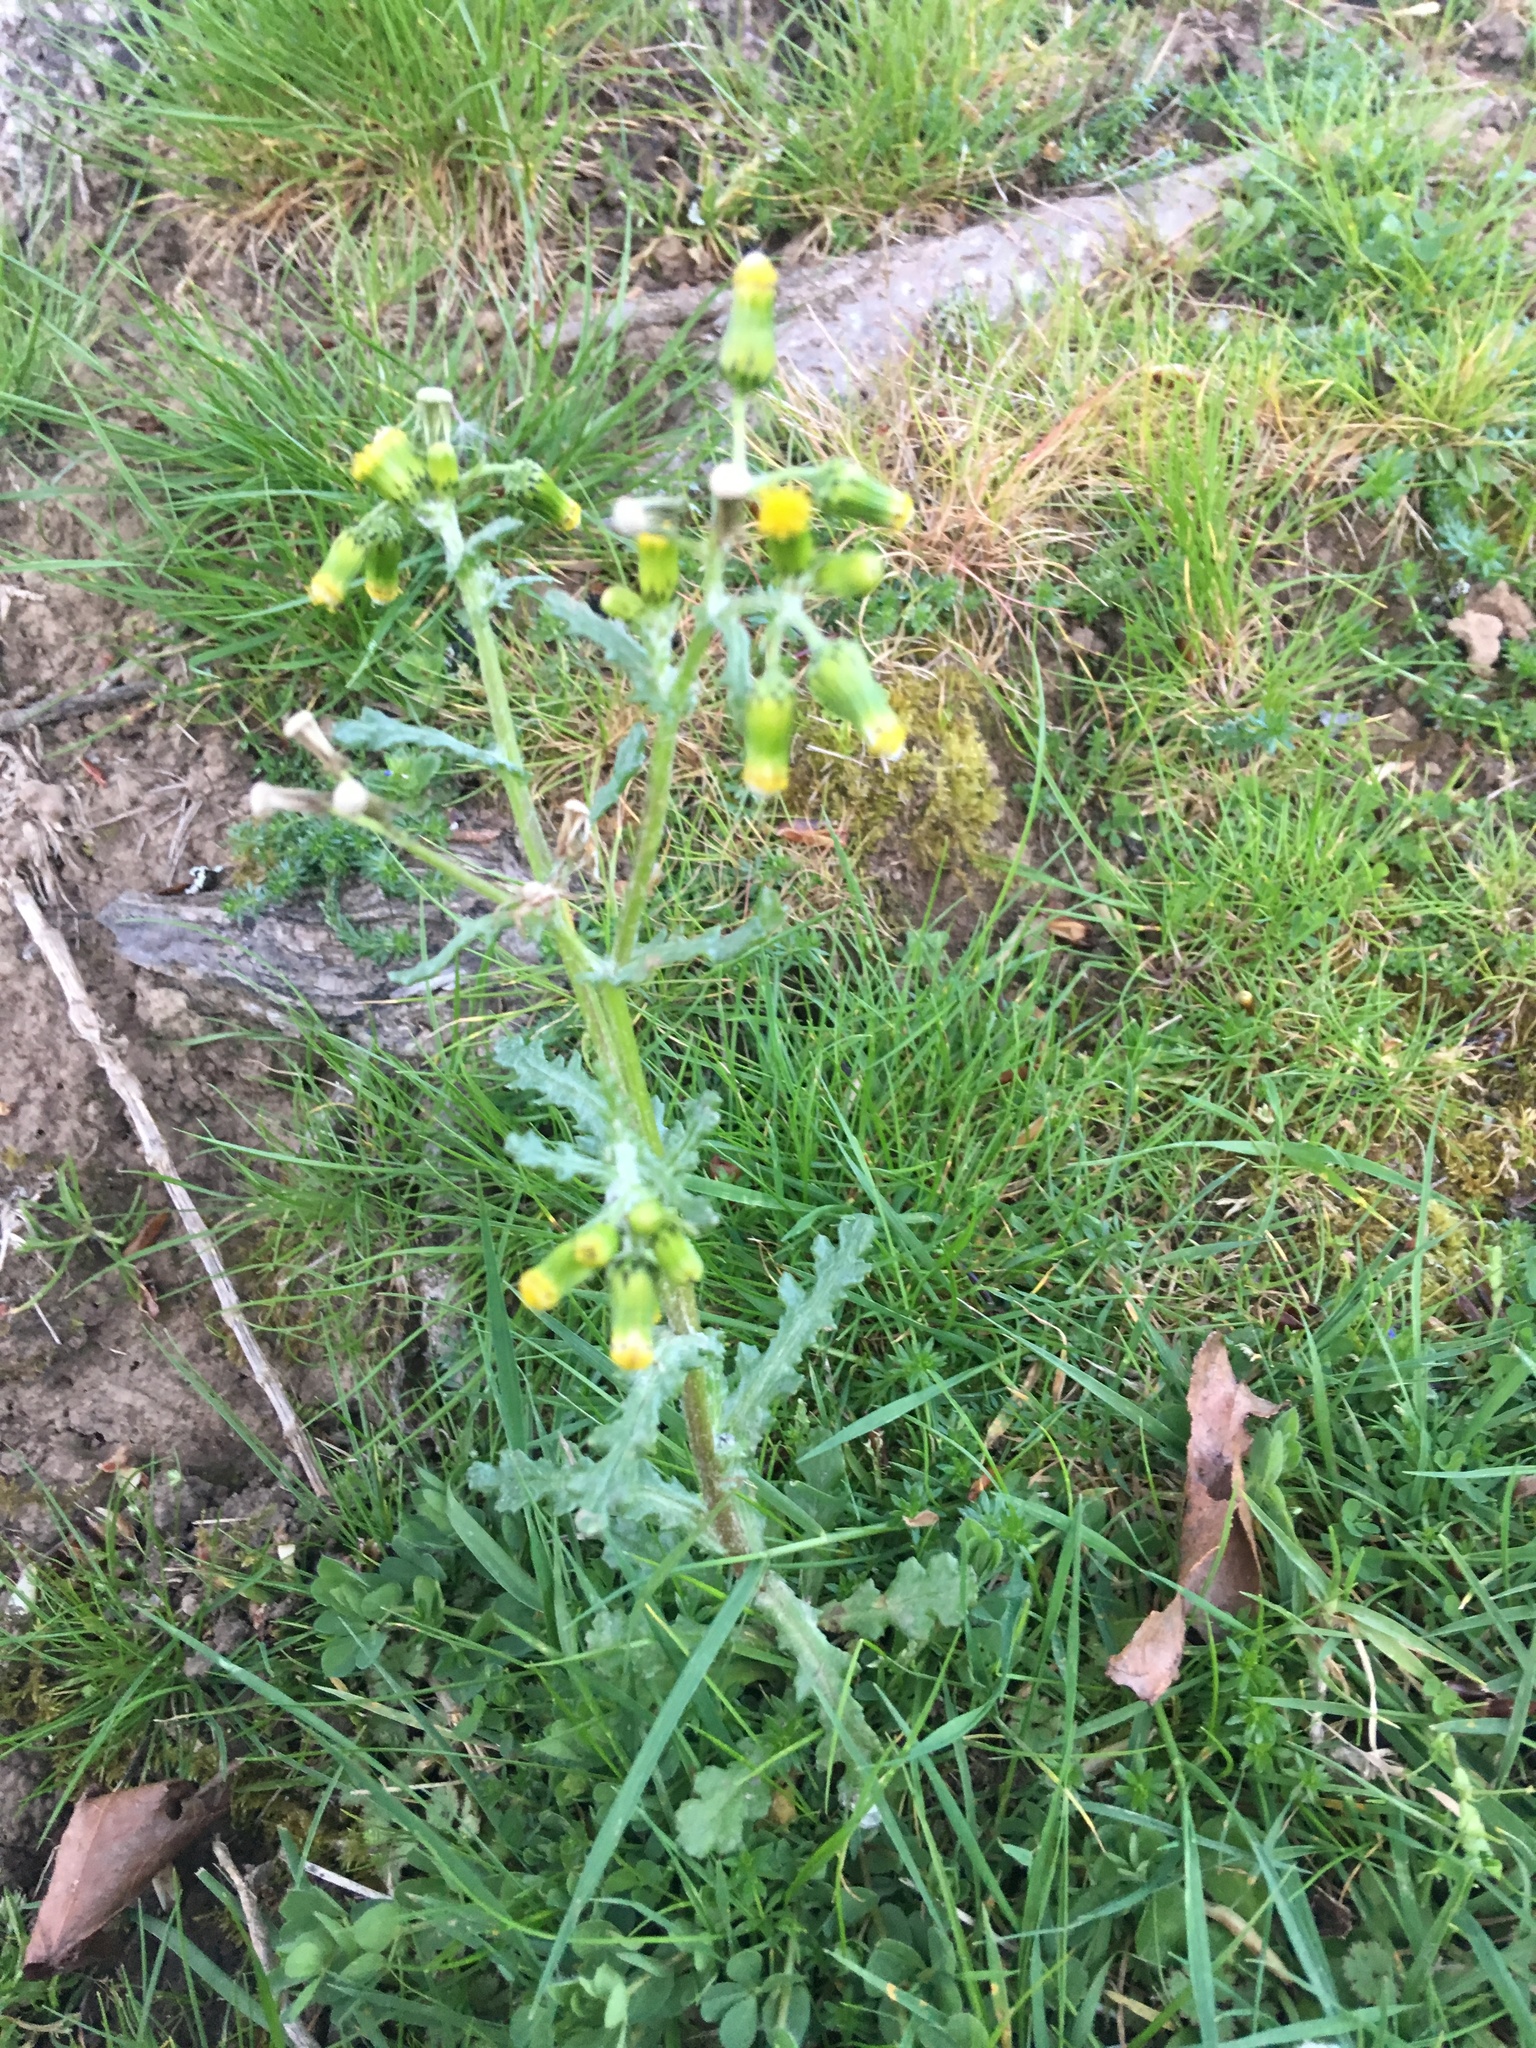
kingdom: Plantae
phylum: Tracheophyta
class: Magnoliopsida
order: Asterales
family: Asteraceae
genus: Senecio
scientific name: Senecio vulgaris
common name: Old-man-in-the-spring
